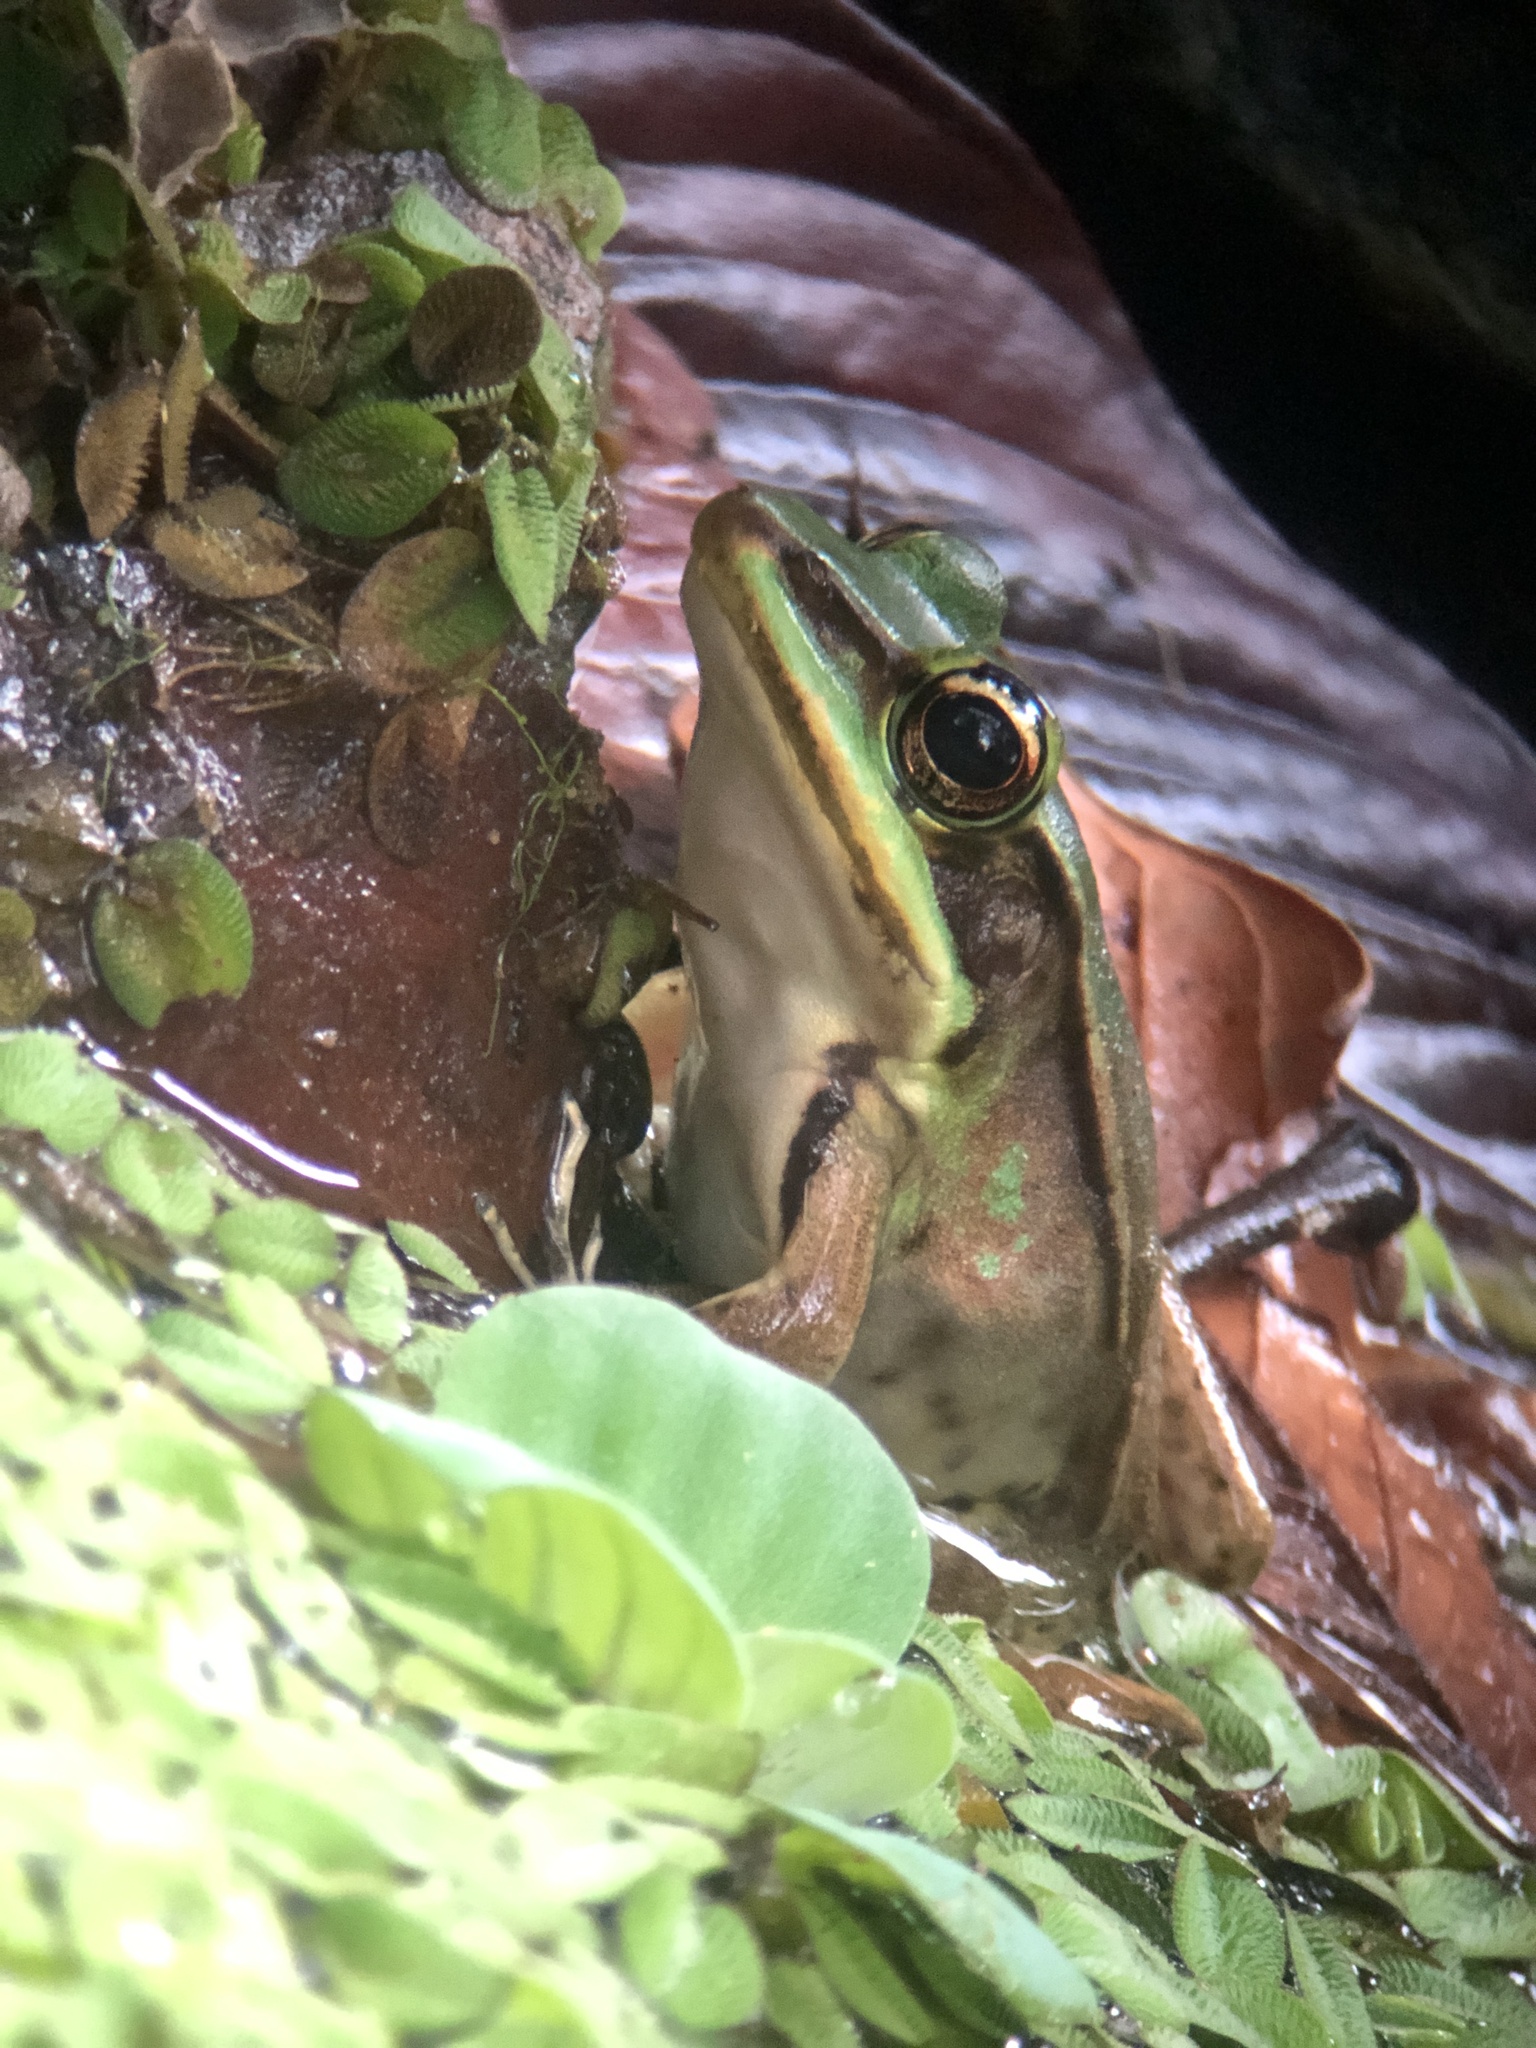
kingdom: Animalia
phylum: Chordata
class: Amphibia
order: Anura
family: Ranidae
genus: Lithobates
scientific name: Lithobates vaillanti
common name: Vaillant's frog
